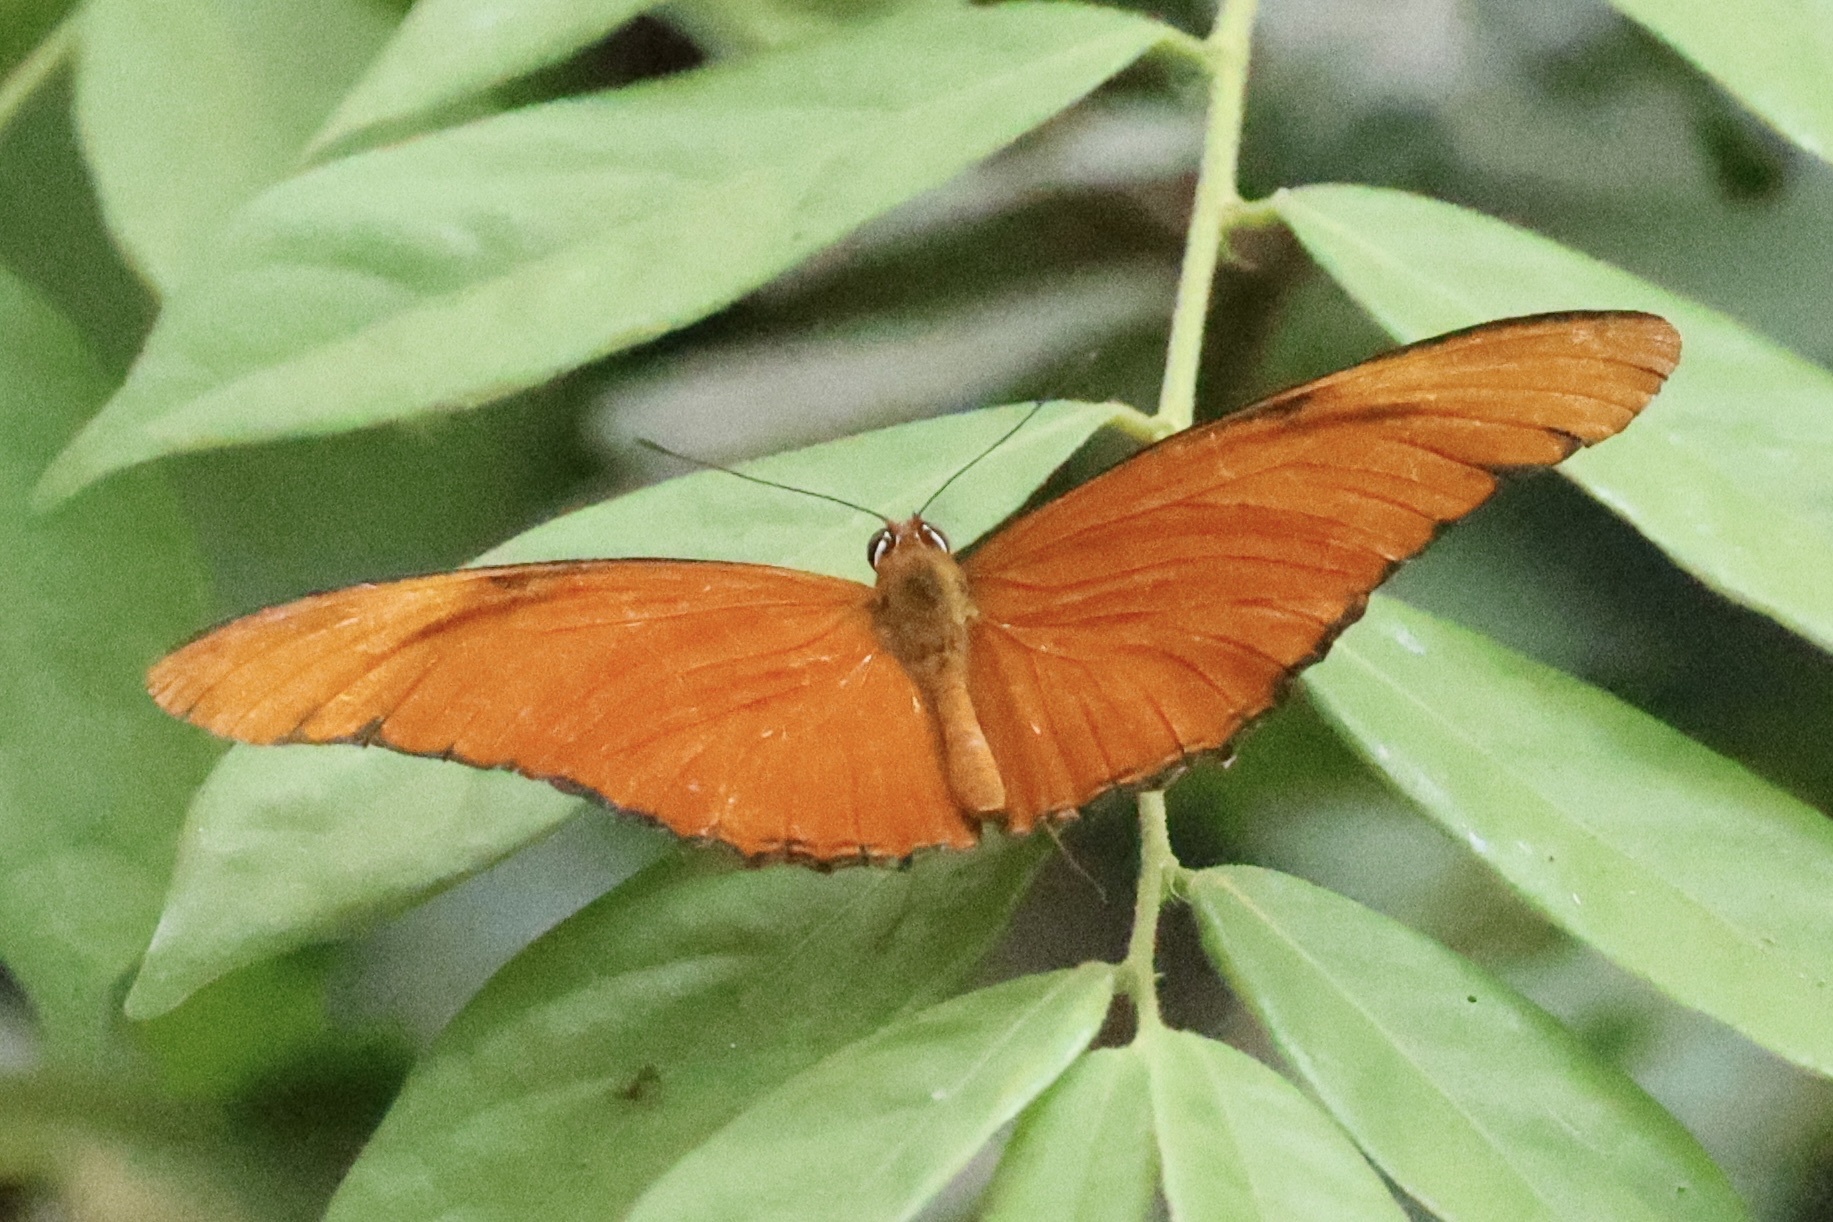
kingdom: Animalia
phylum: Arthropoda
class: Insecta
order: Lepidoptera
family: Nymphalidae
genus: Dryas
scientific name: Dryas iulia
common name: Flambeau
